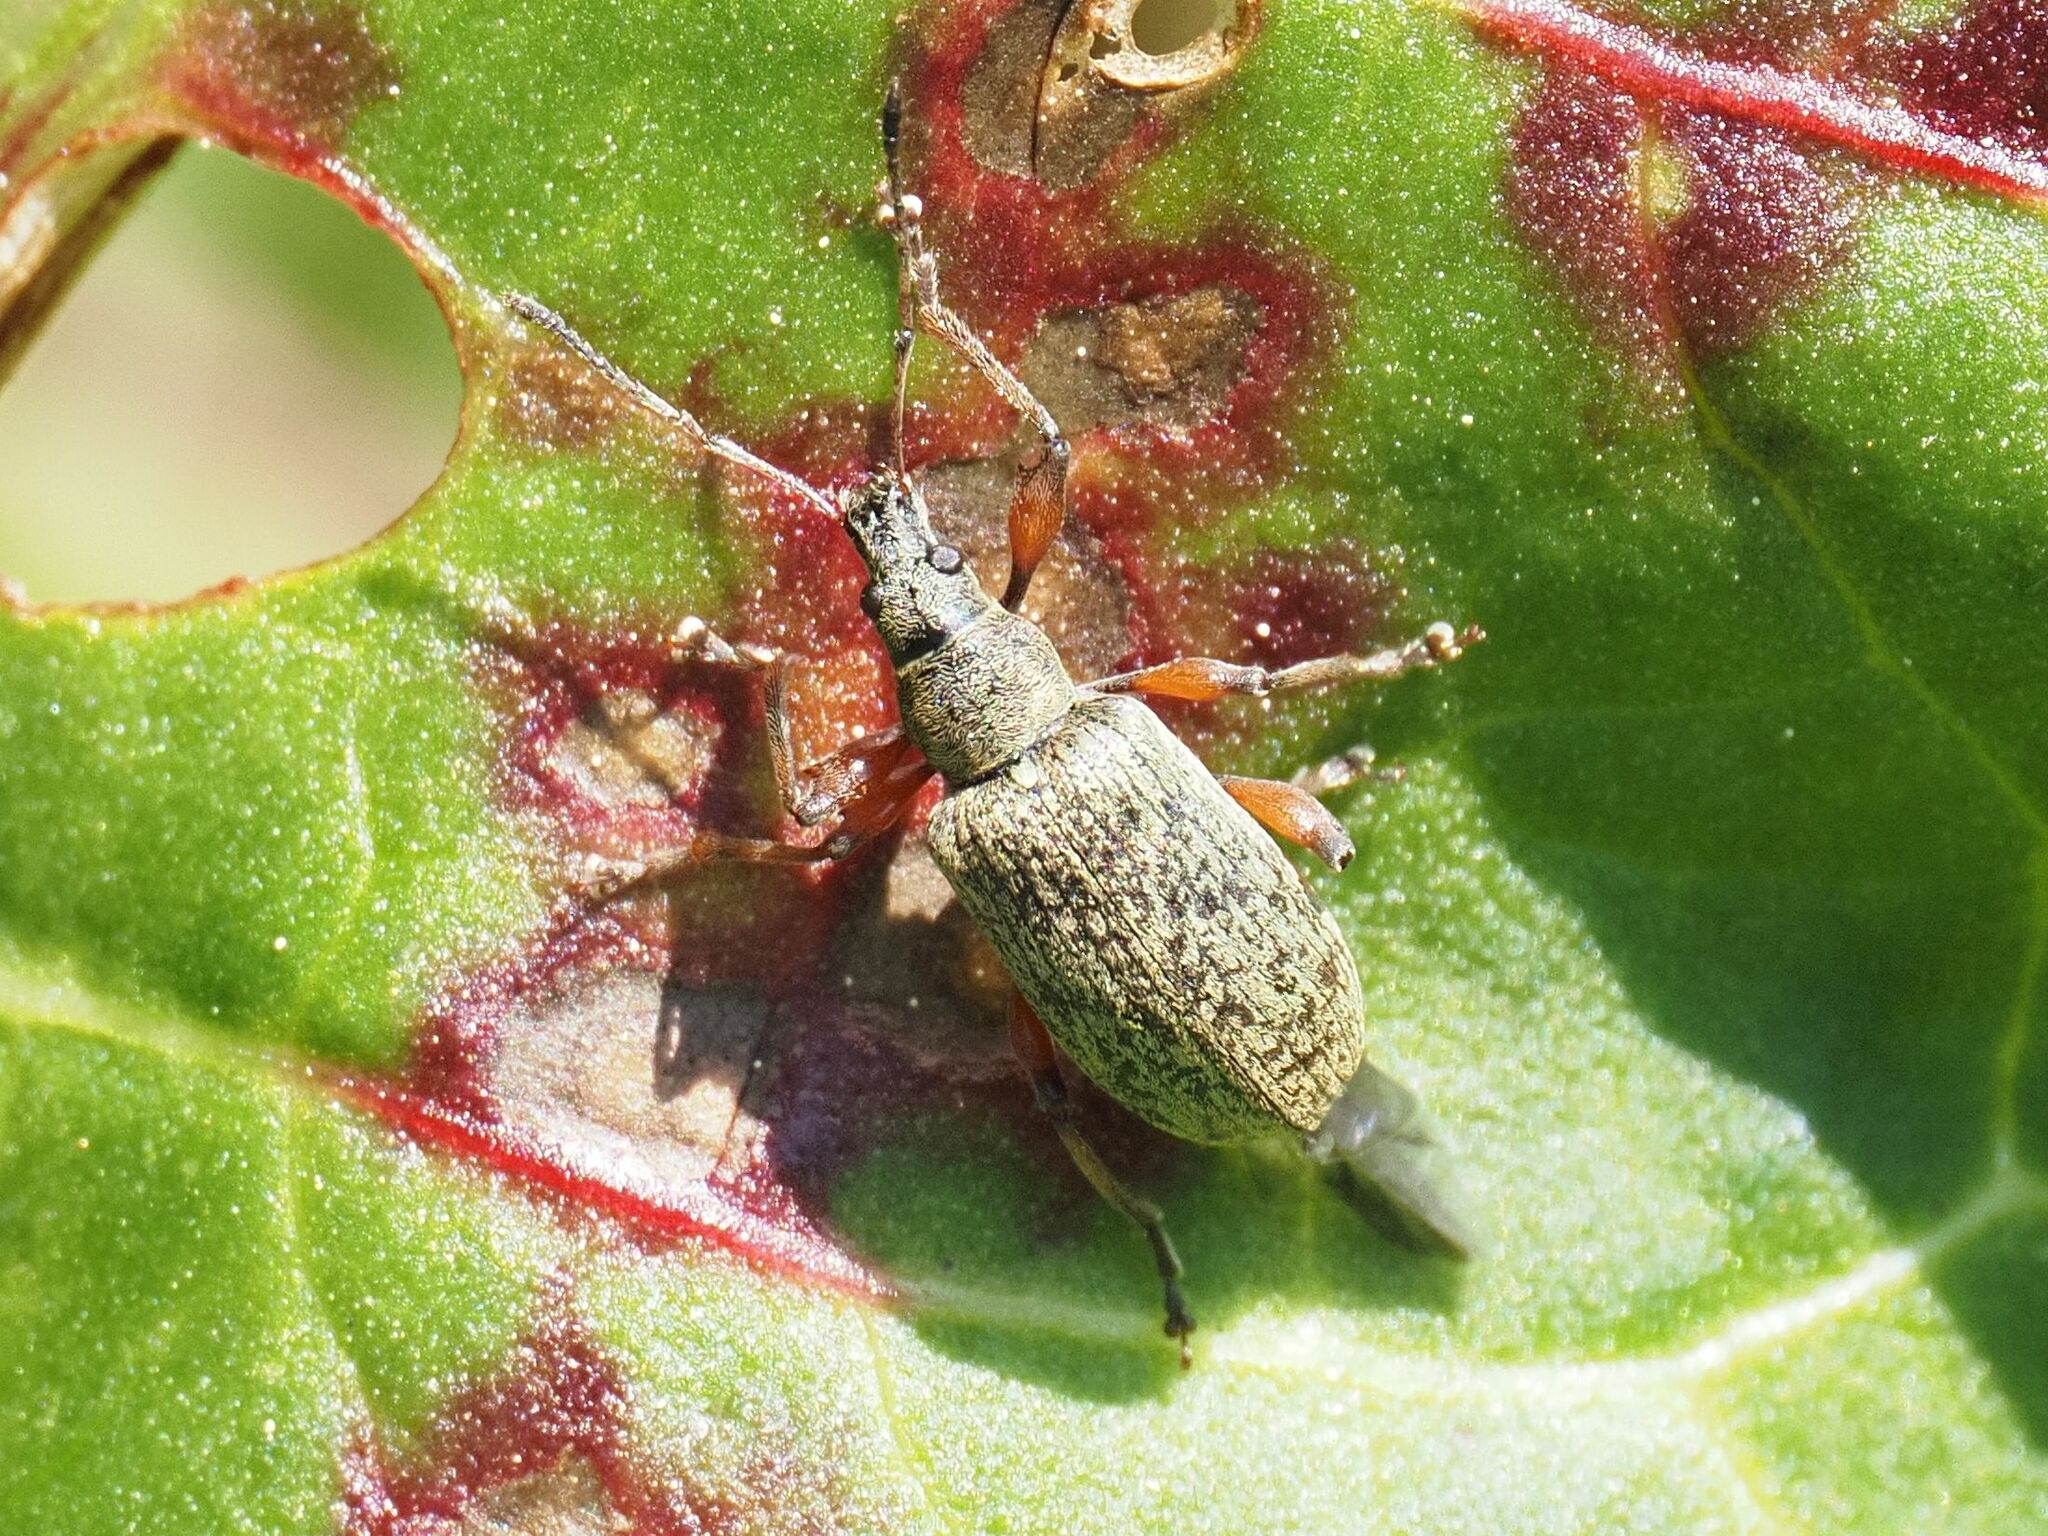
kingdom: Animalia
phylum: Arthropoda
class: Insecta
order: Coleoptera
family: Curculionidae
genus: Phyllobius
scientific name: Phyllobius glaucus
